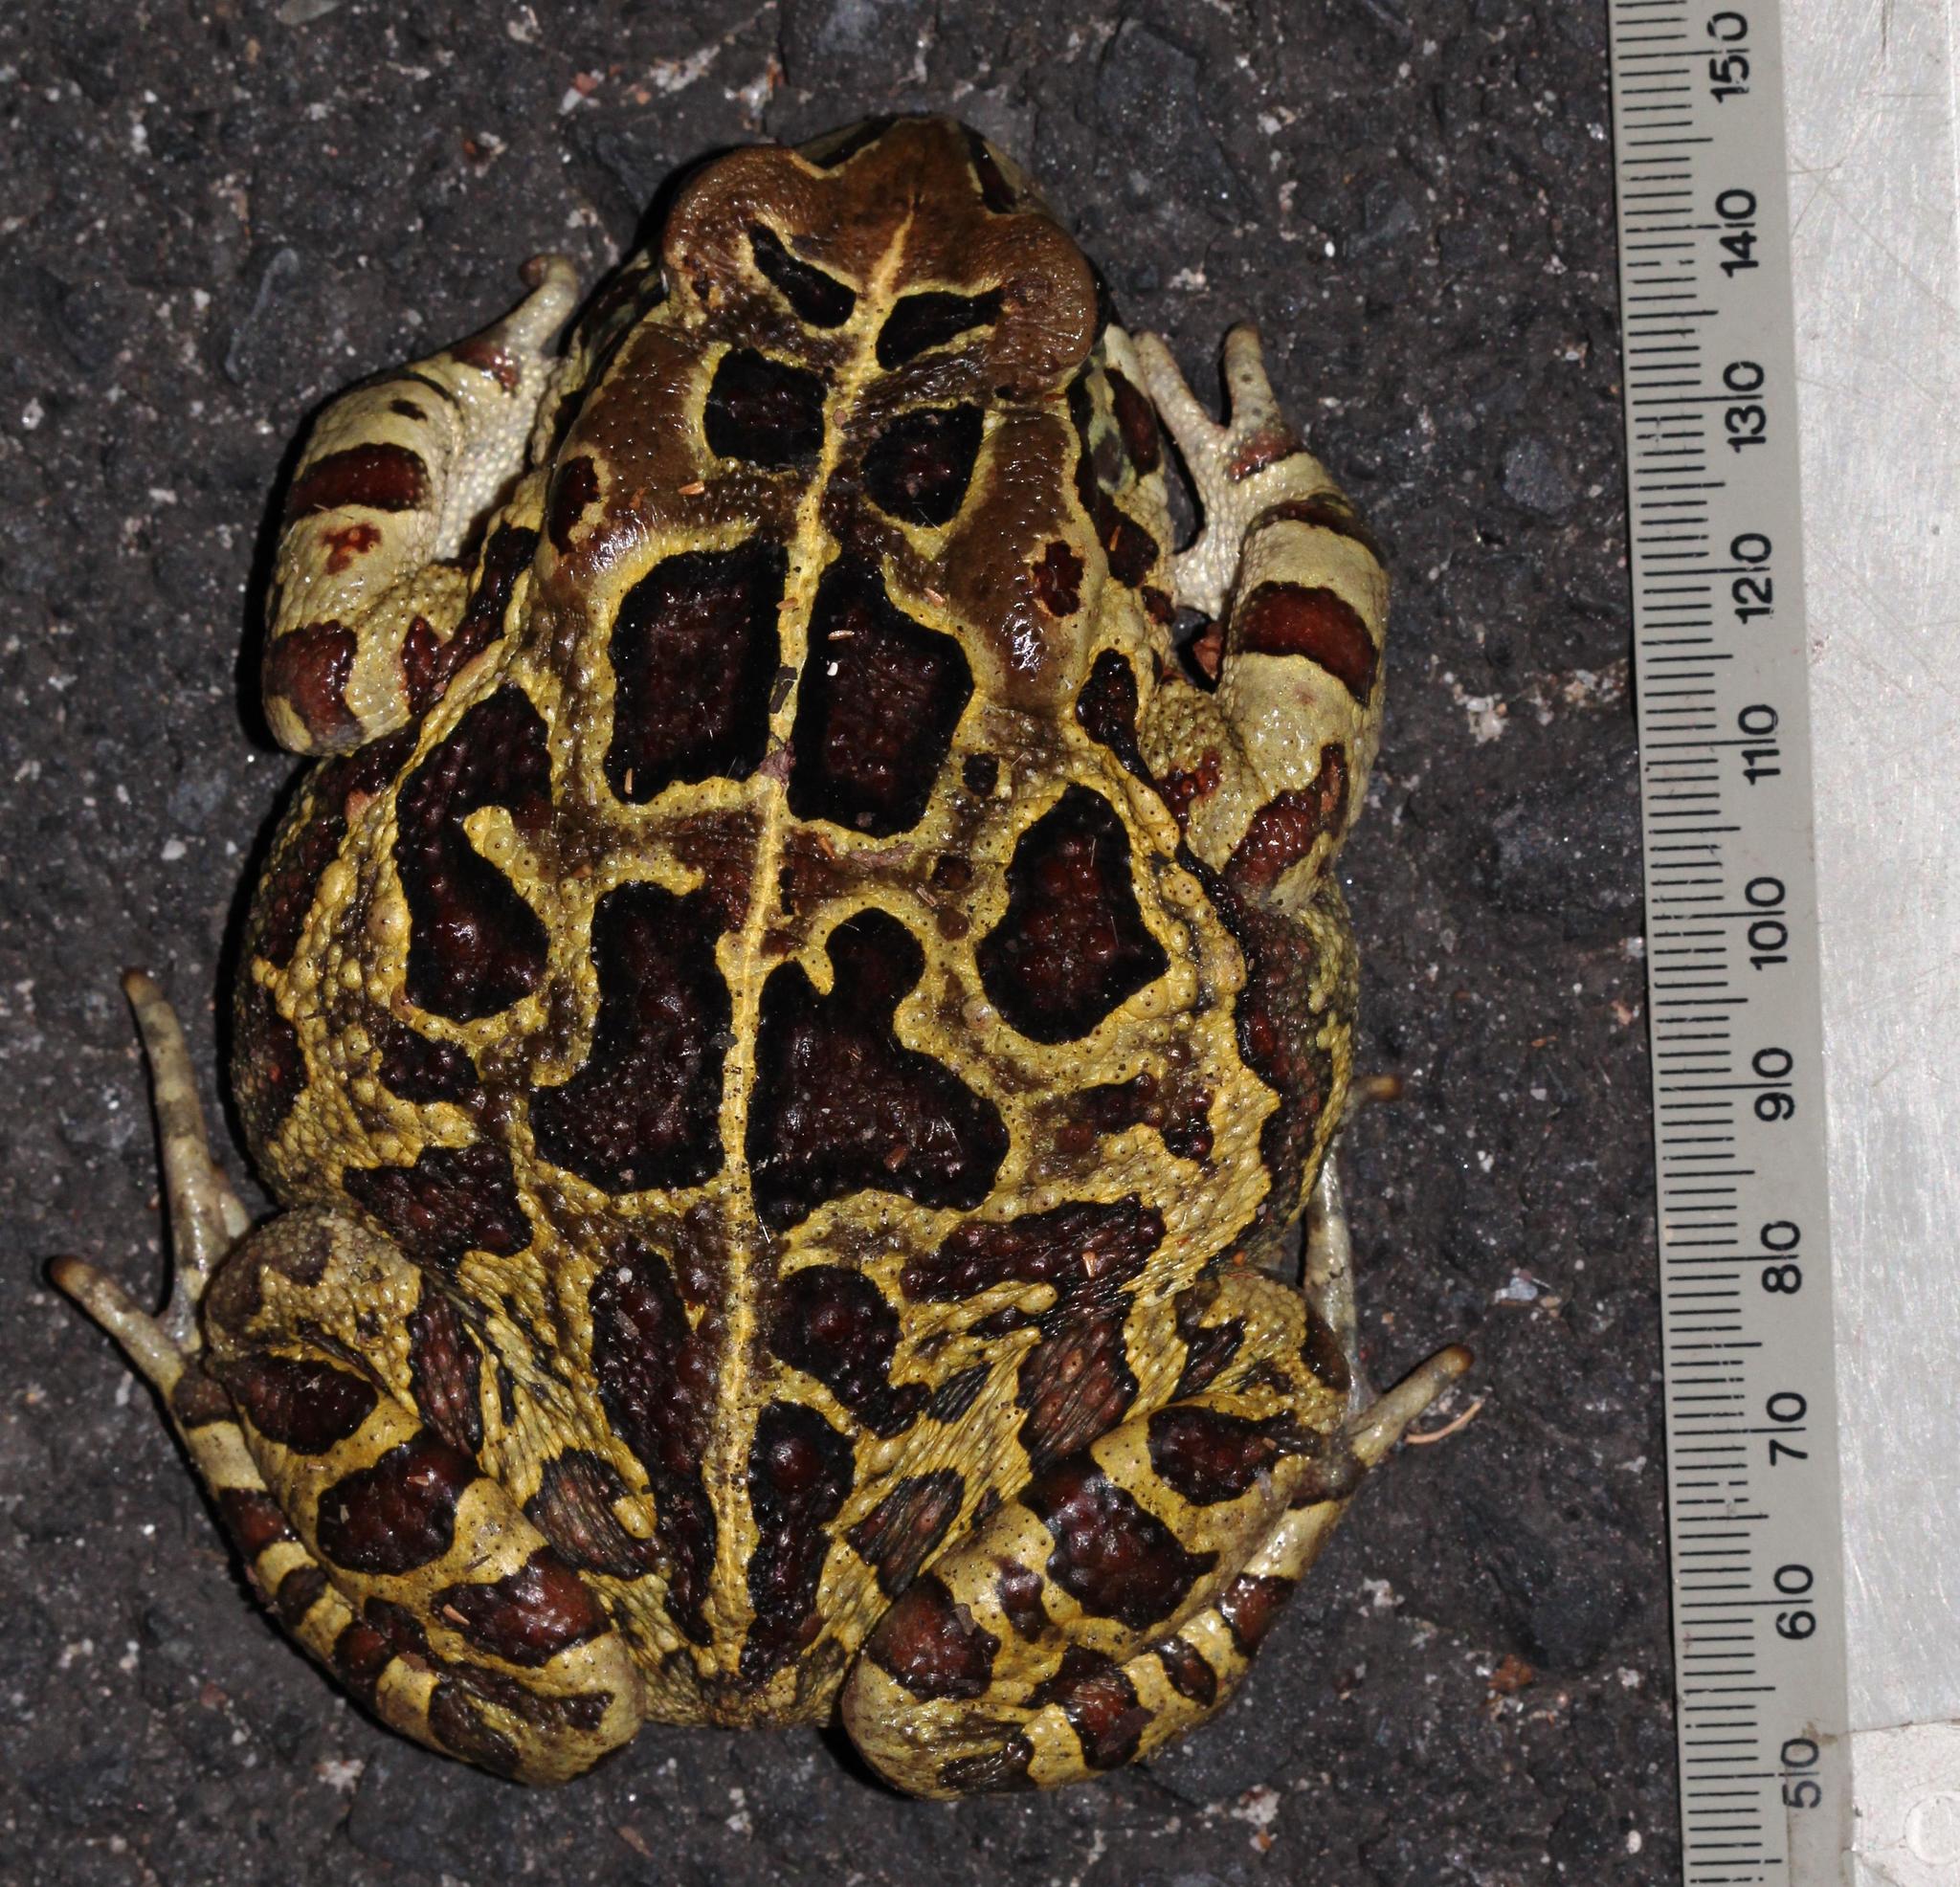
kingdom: Animalia
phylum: Chordata
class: Amphibia
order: Anura
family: Bufonidae
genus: Sclerophrys
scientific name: Sclerophrys pantherina
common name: Panther toad
